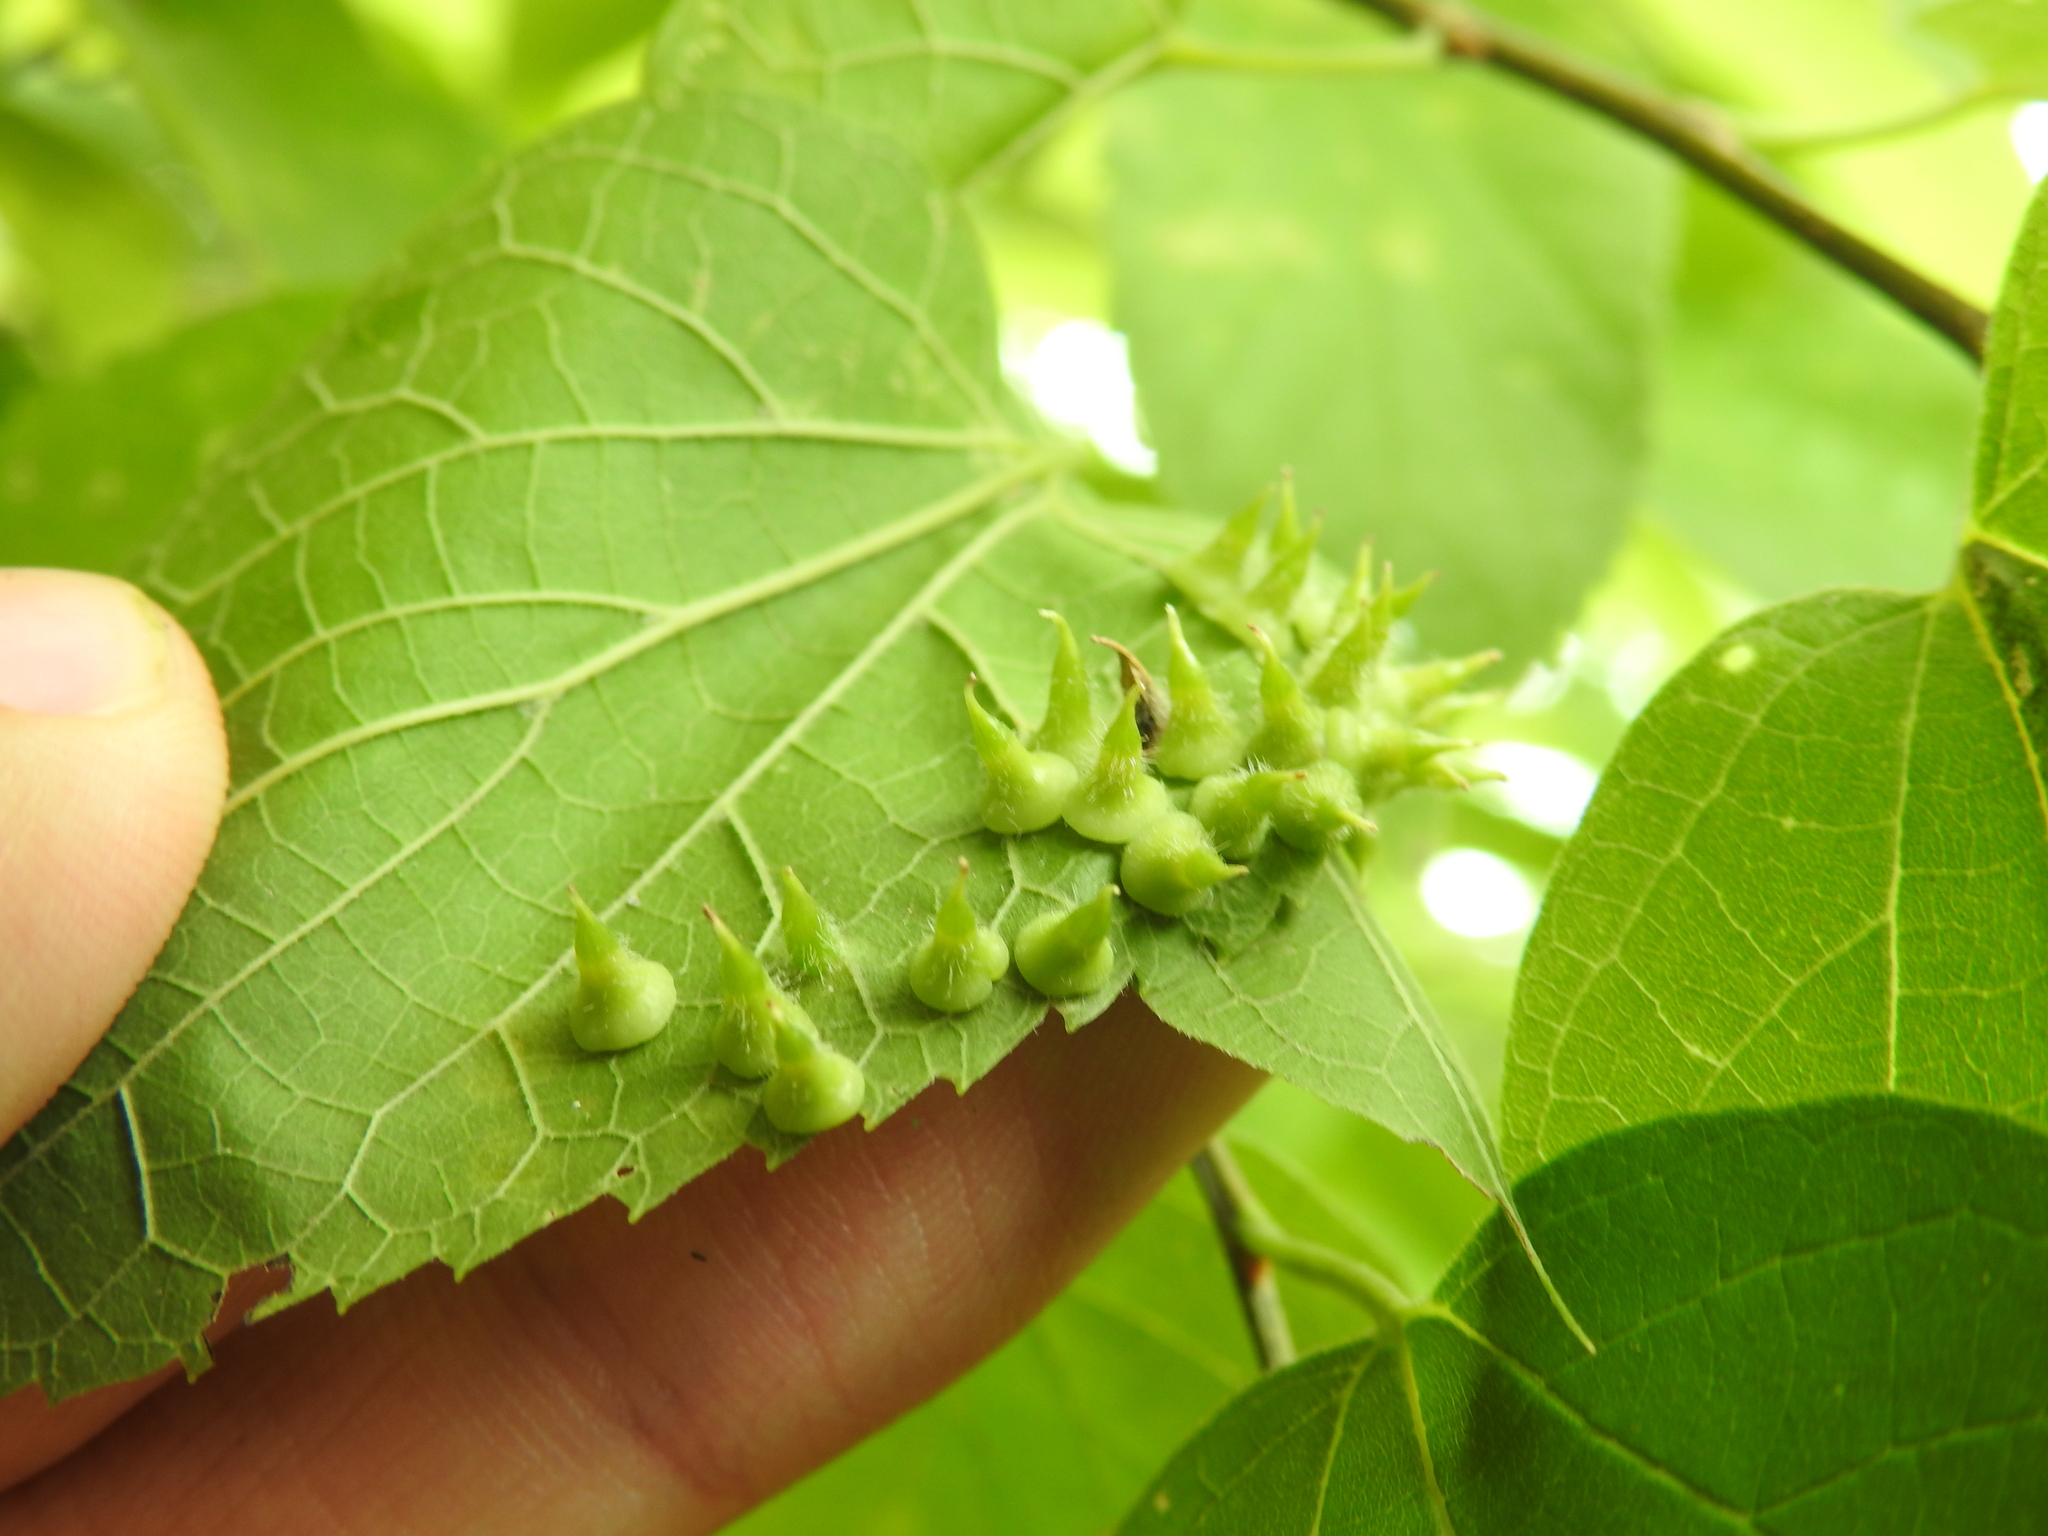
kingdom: Animalia
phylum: Arthropoda
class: Insecta
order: Diptera
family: Cecidomyiidae
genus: Celticecis
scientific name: Celticecis pilosa
